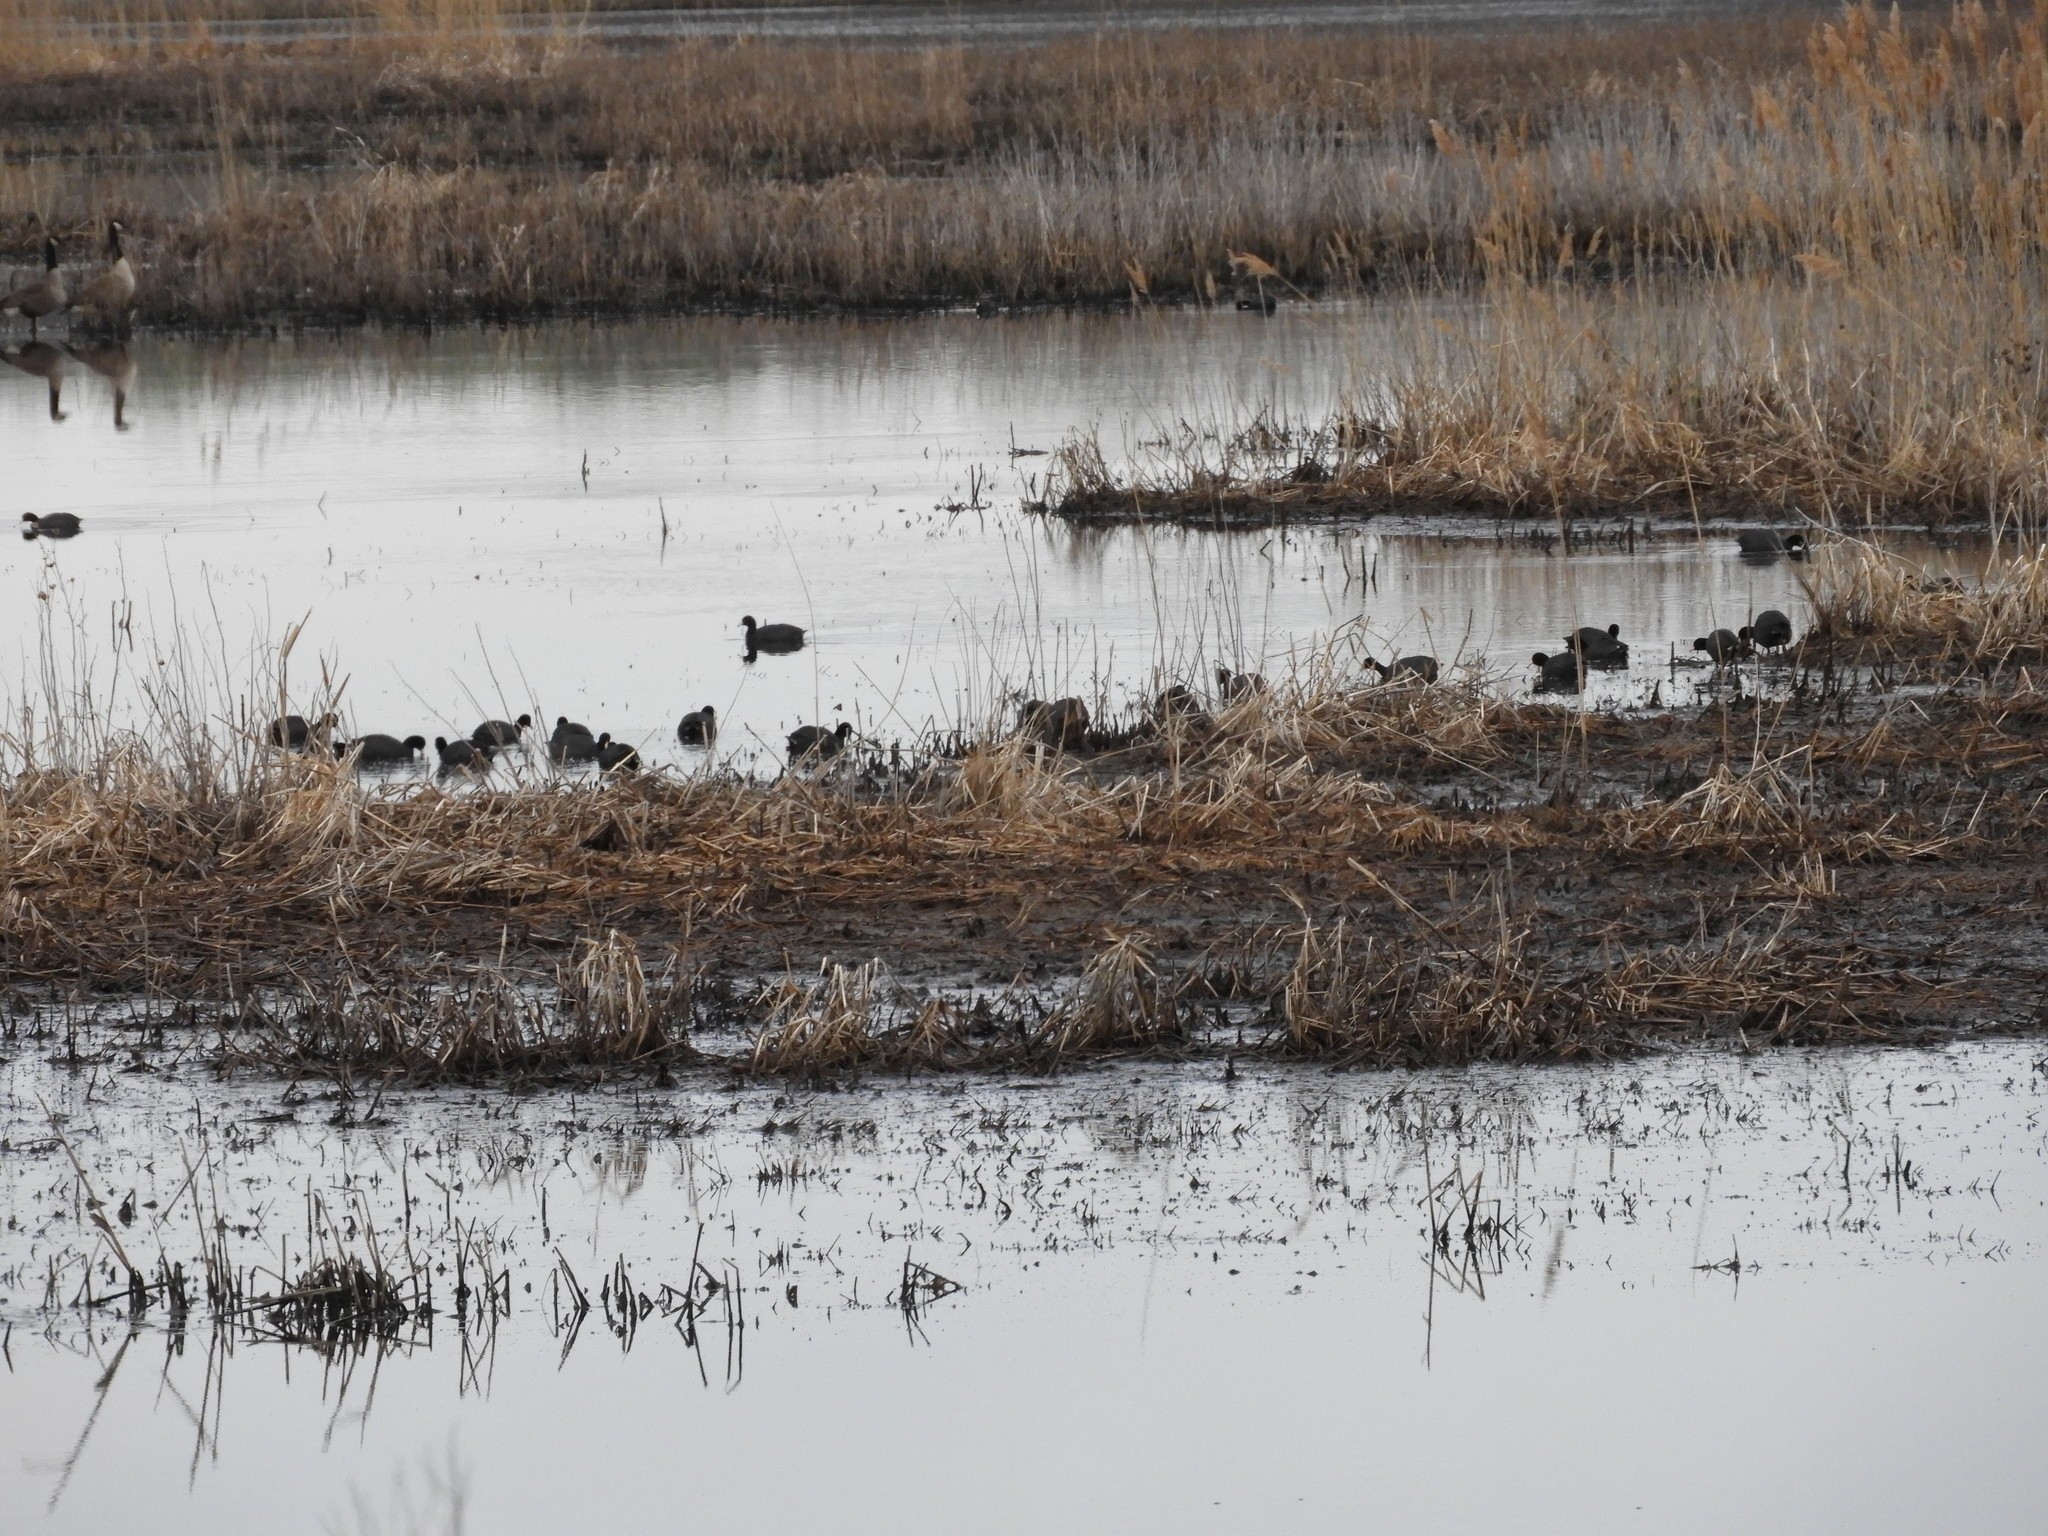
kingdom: Animalia
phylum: Chordata
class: Aves
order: Gruiformes
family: Rallidae
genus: Fulica
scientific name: Fulica americana
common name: American coot
